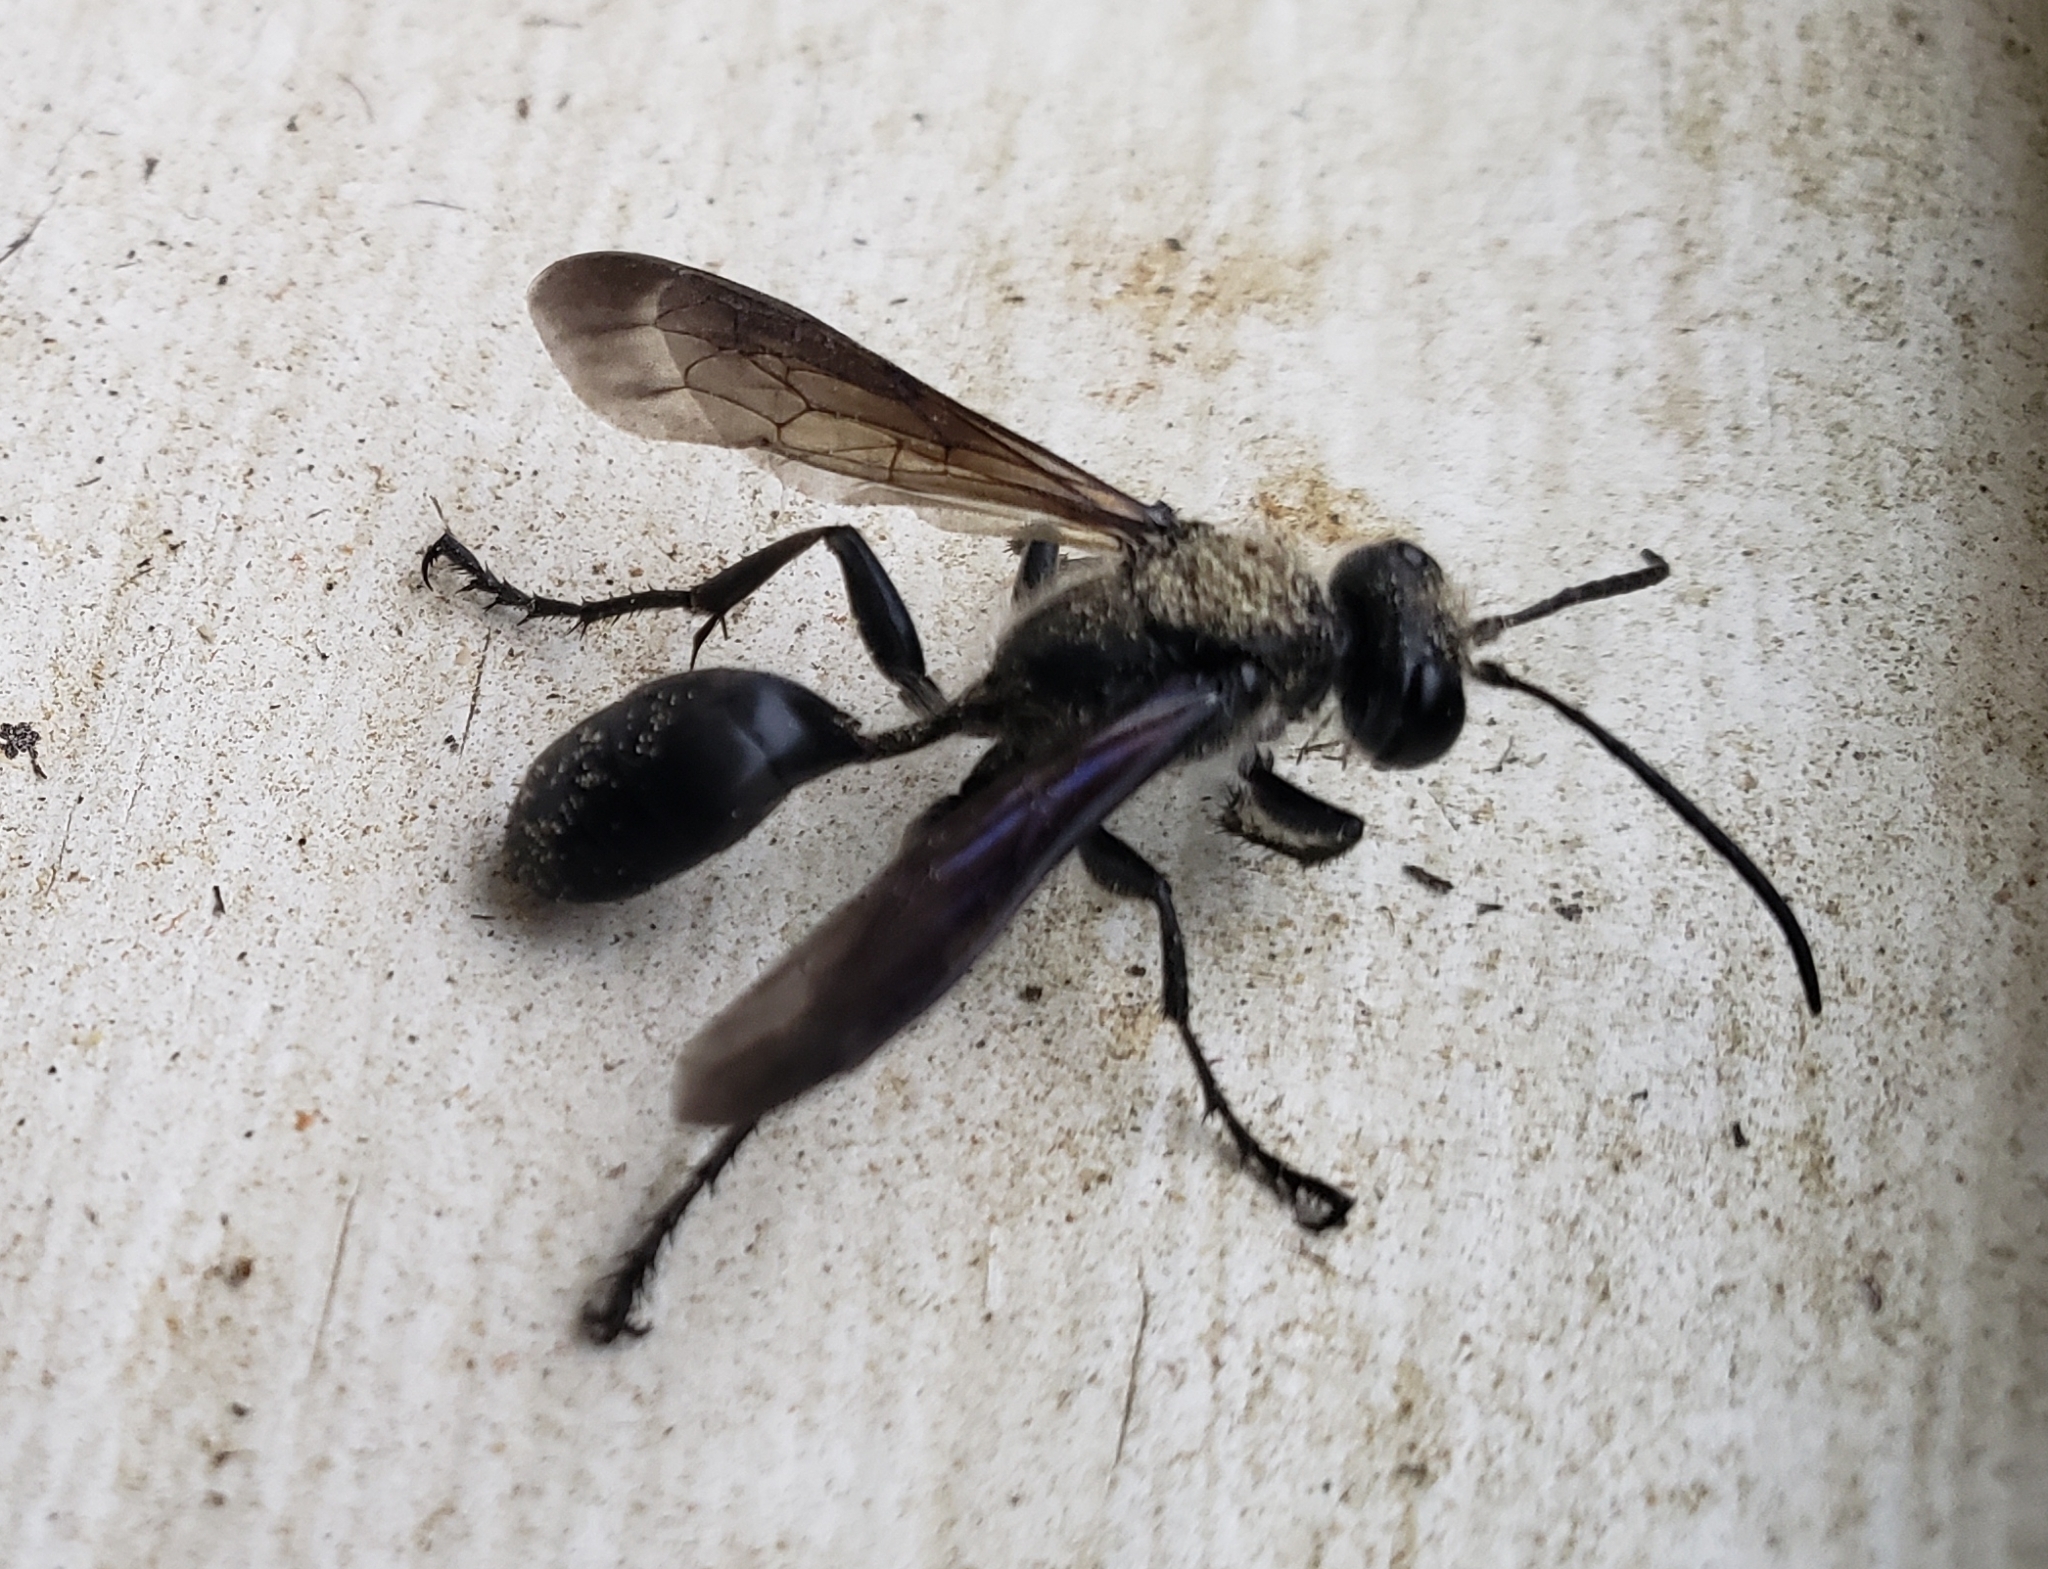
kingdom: Animalia
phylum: Arthropoda
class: Insecta
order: Hymenoptera
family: Sphecidae
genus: Isodontia
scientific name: Isodontia mexicana
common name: Mud dauber
